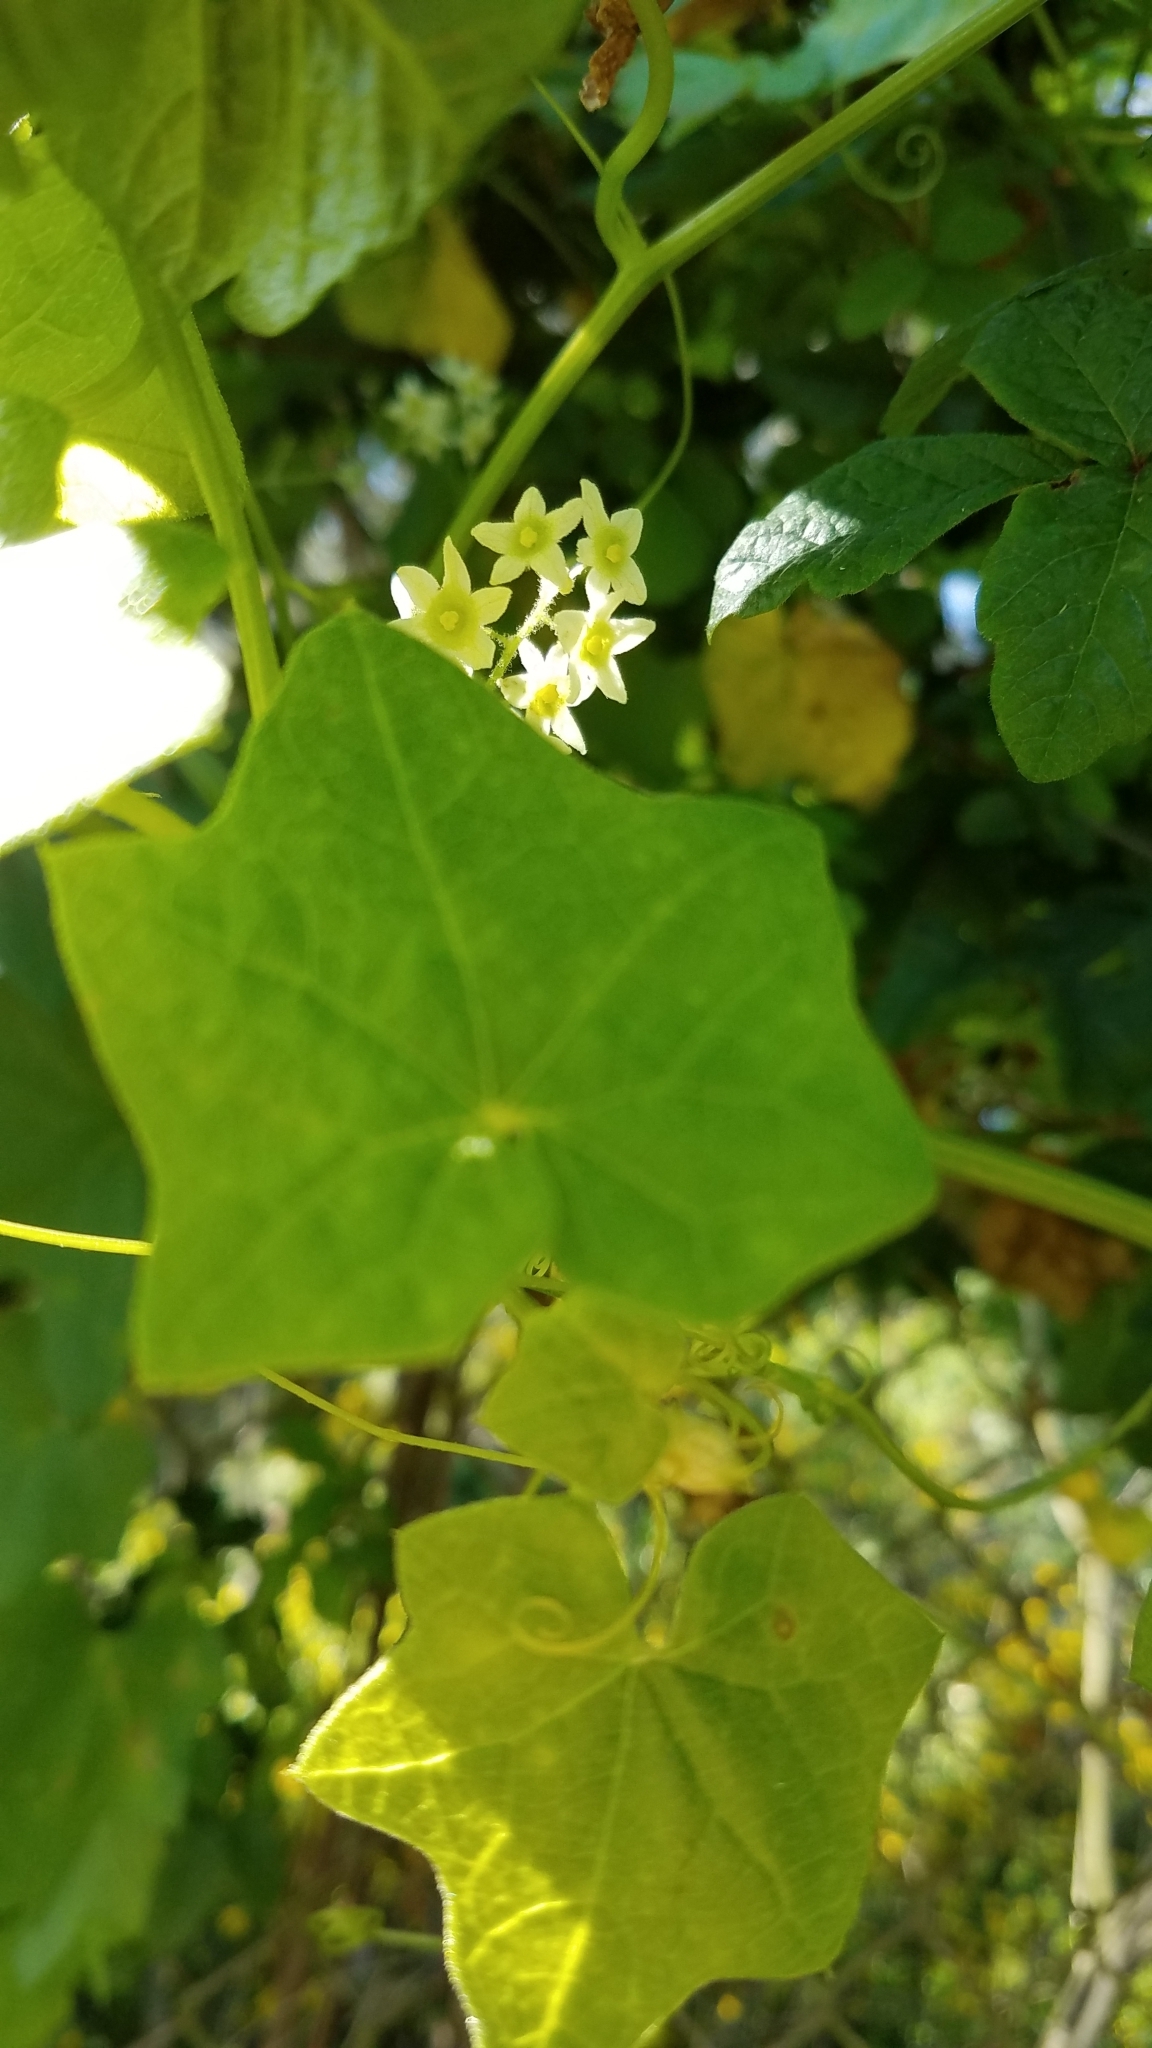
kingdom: Plantae
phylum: Tracheophyta
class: Magnoliopsida
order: Cucurbitales
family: Cucurbitaceae
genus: Marah
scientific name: Marah fabacea
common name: California manroot
